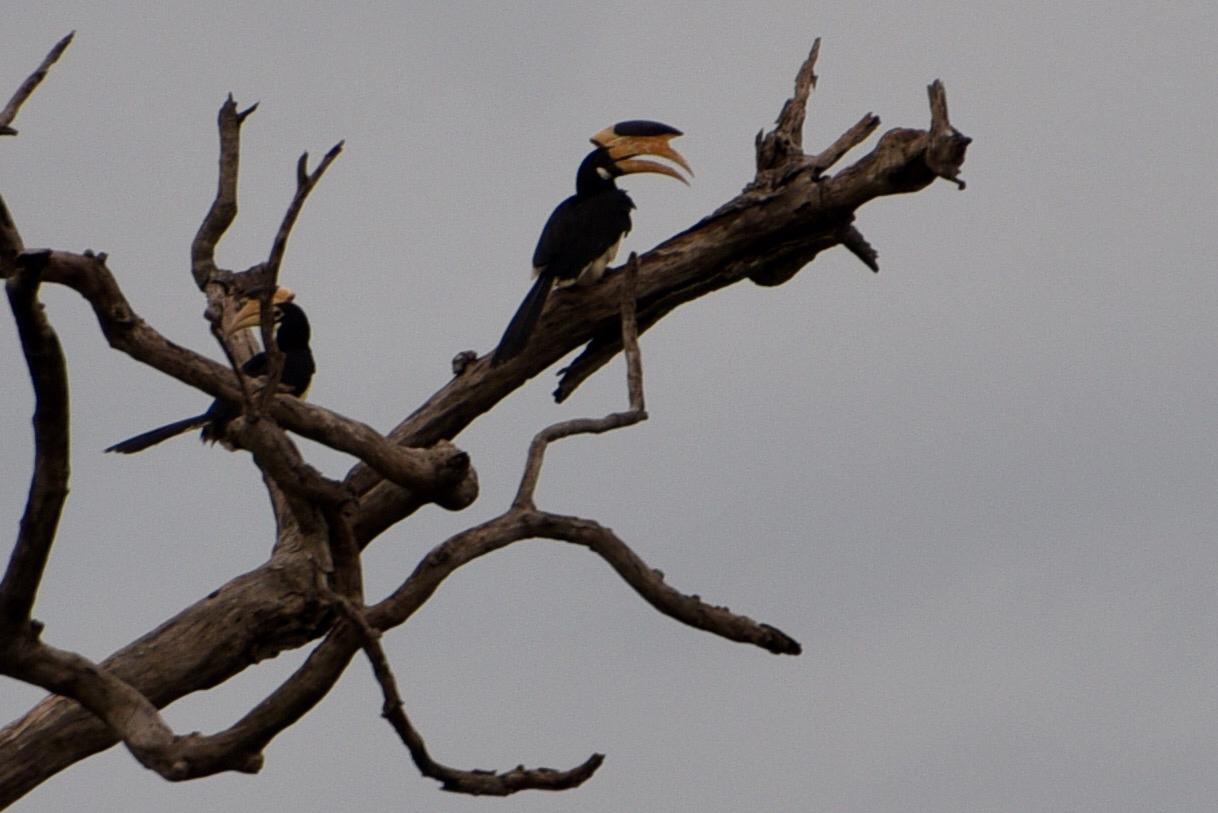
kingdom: Animalia
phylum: Chordata
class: Aves
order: Bucerotiformes
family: Bucerotidae
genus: Anthracoceros
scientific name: Anthracoceros coronatus
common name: Malabar pied hornbill
